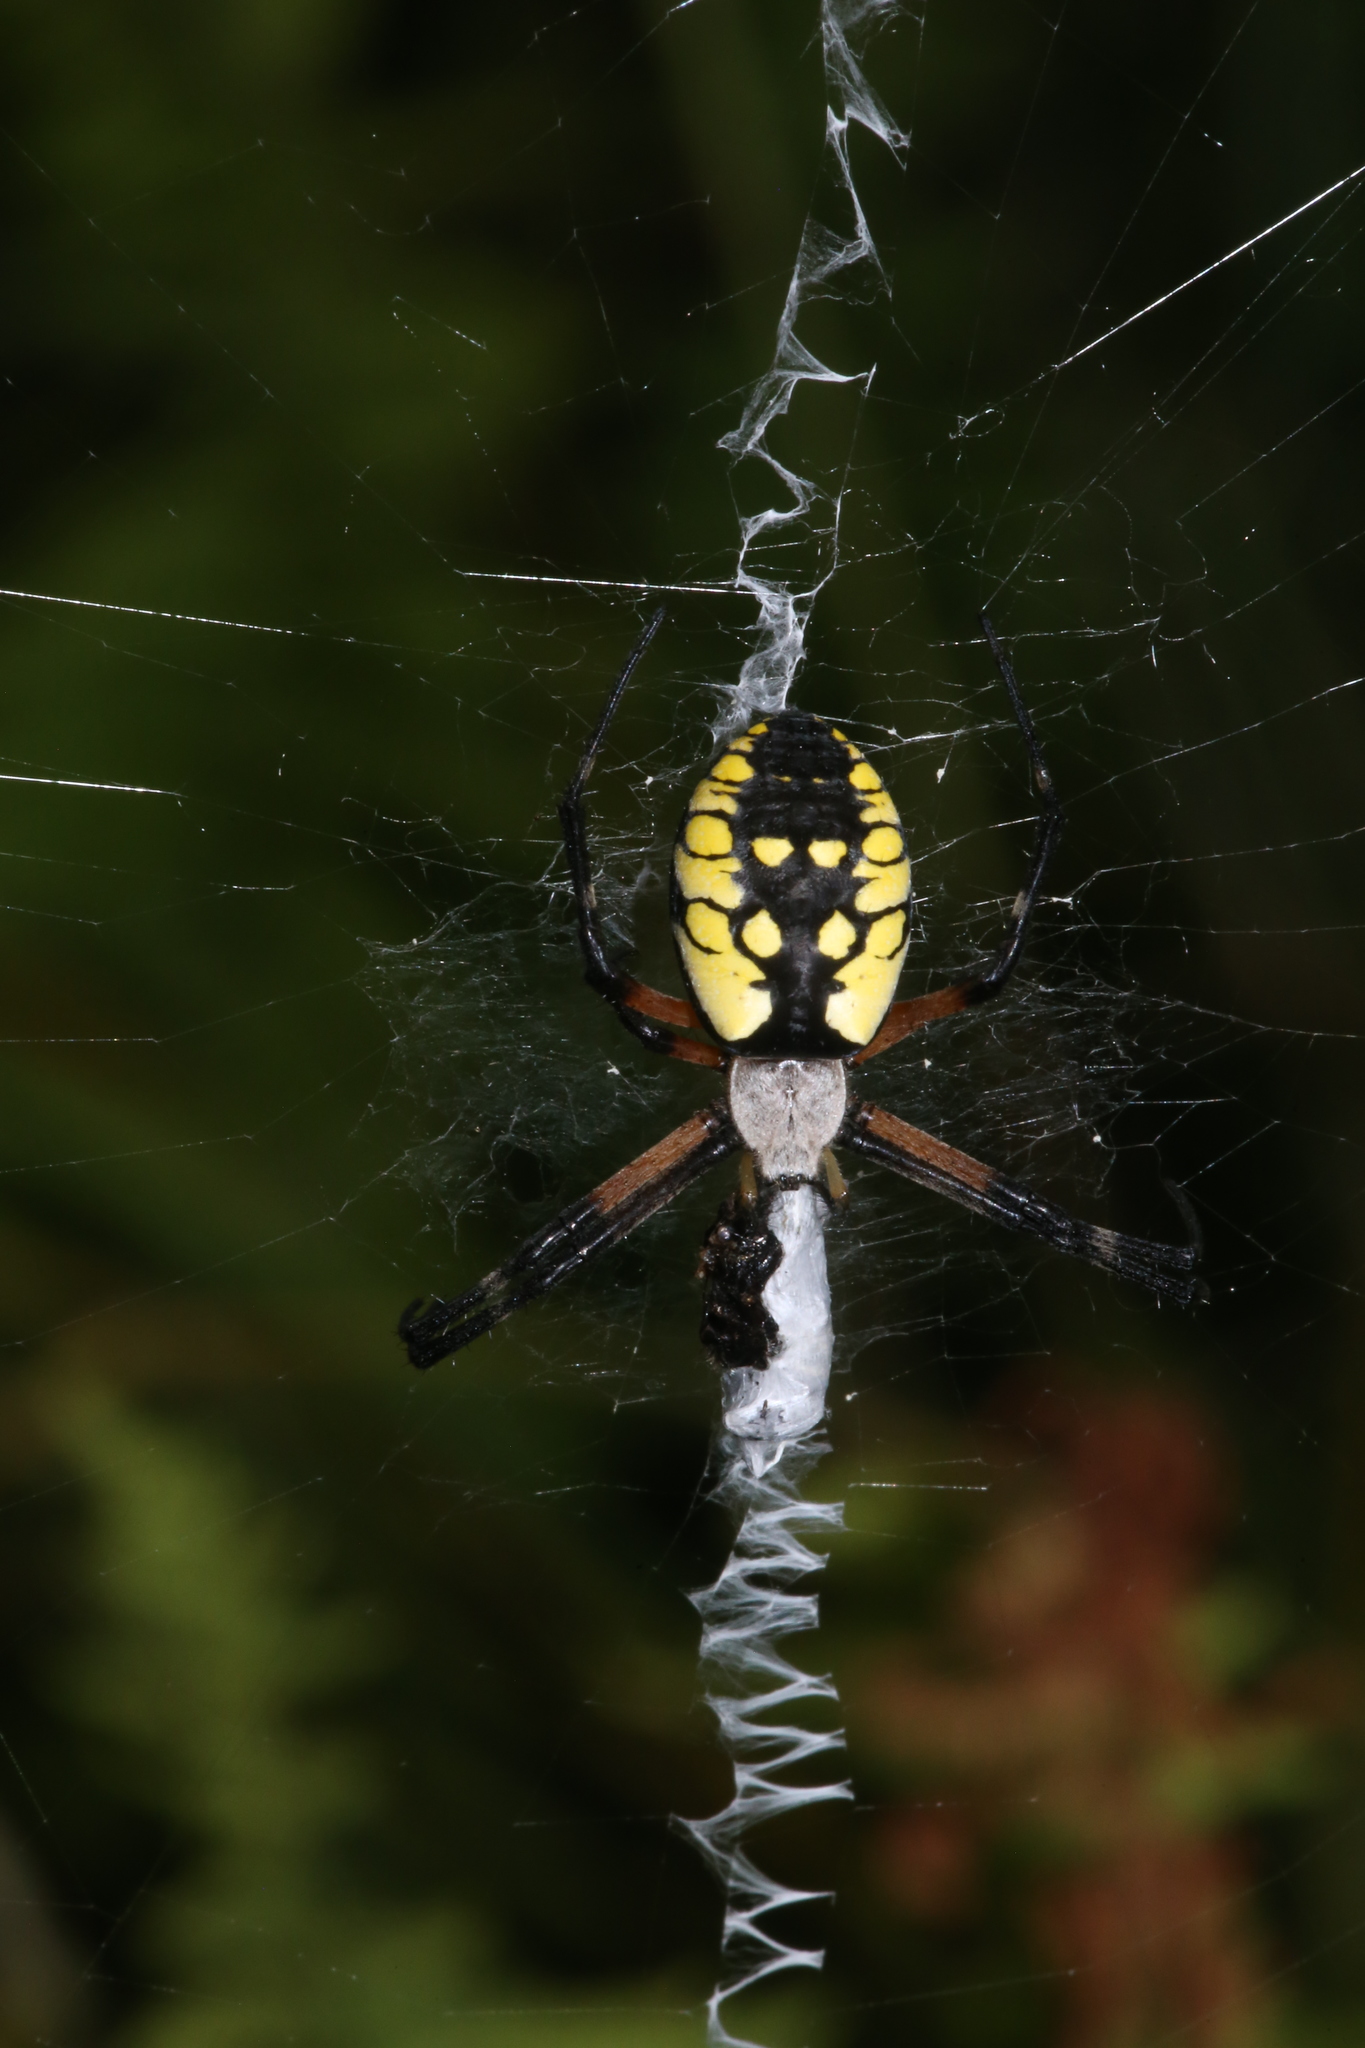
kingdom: Animalia
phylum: Arthropoda
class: Arachnida
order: Araneae
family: Araneidae
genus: Argiope
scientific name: Argiope aurantia
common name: Orb weavers
